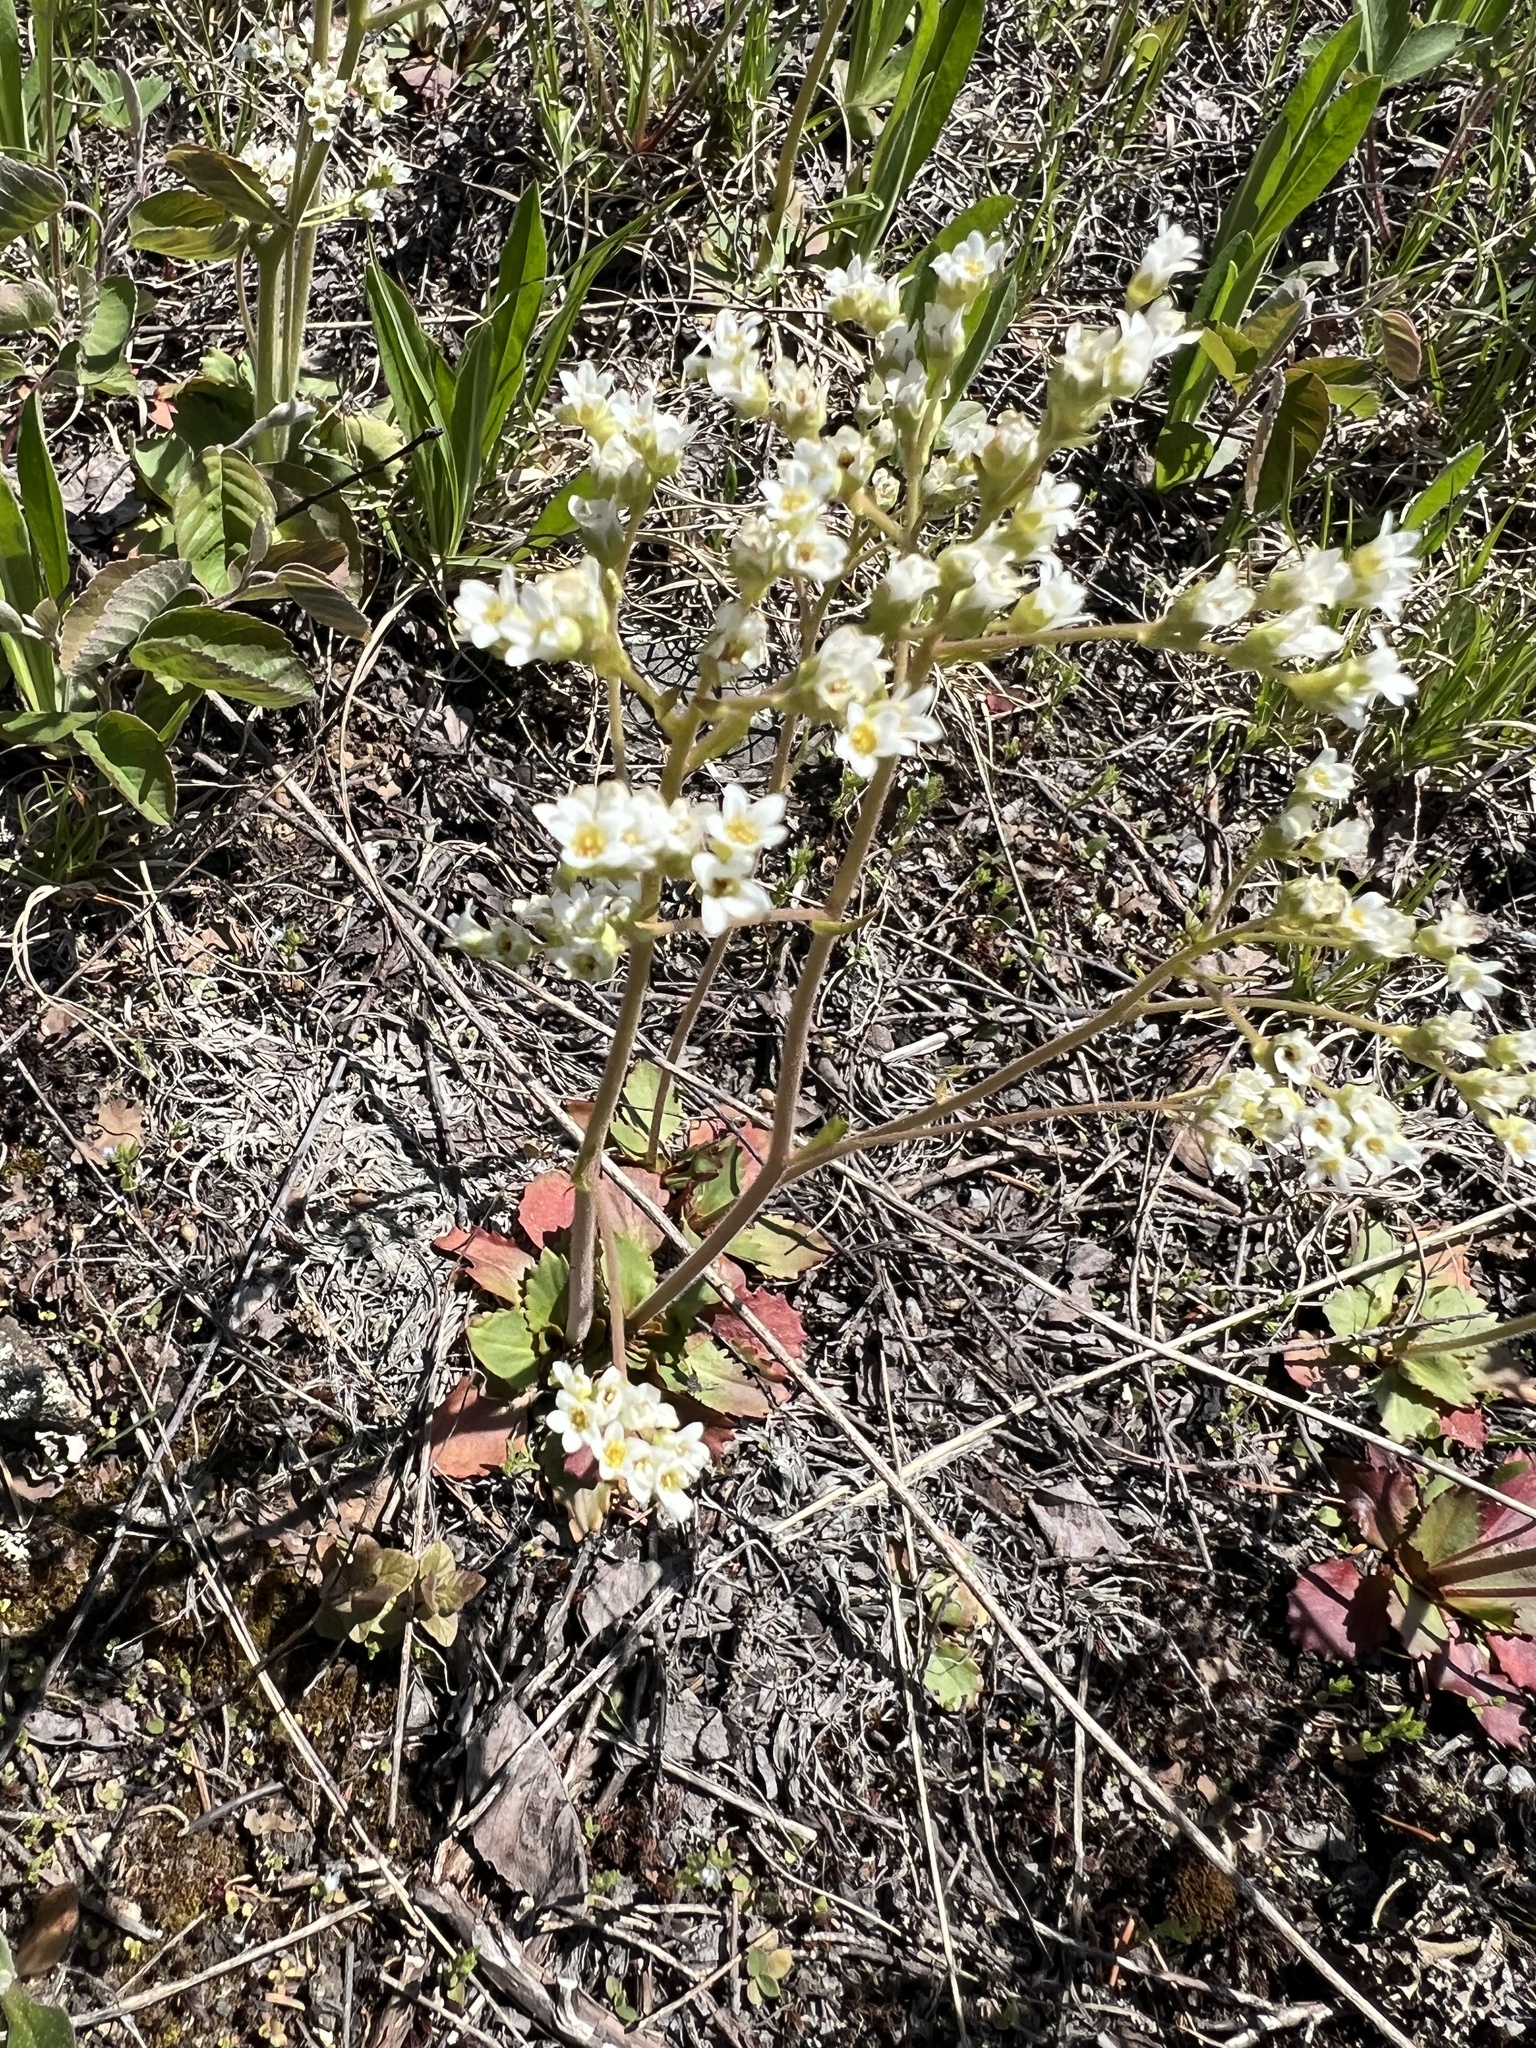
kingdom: Plantae
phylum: Tracheophyta
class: Magnoliopsida
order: Saxifragales
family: Saxifragaceae
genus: Micranthes
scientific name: Micranthes virginiensis
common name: Early saxifrage
